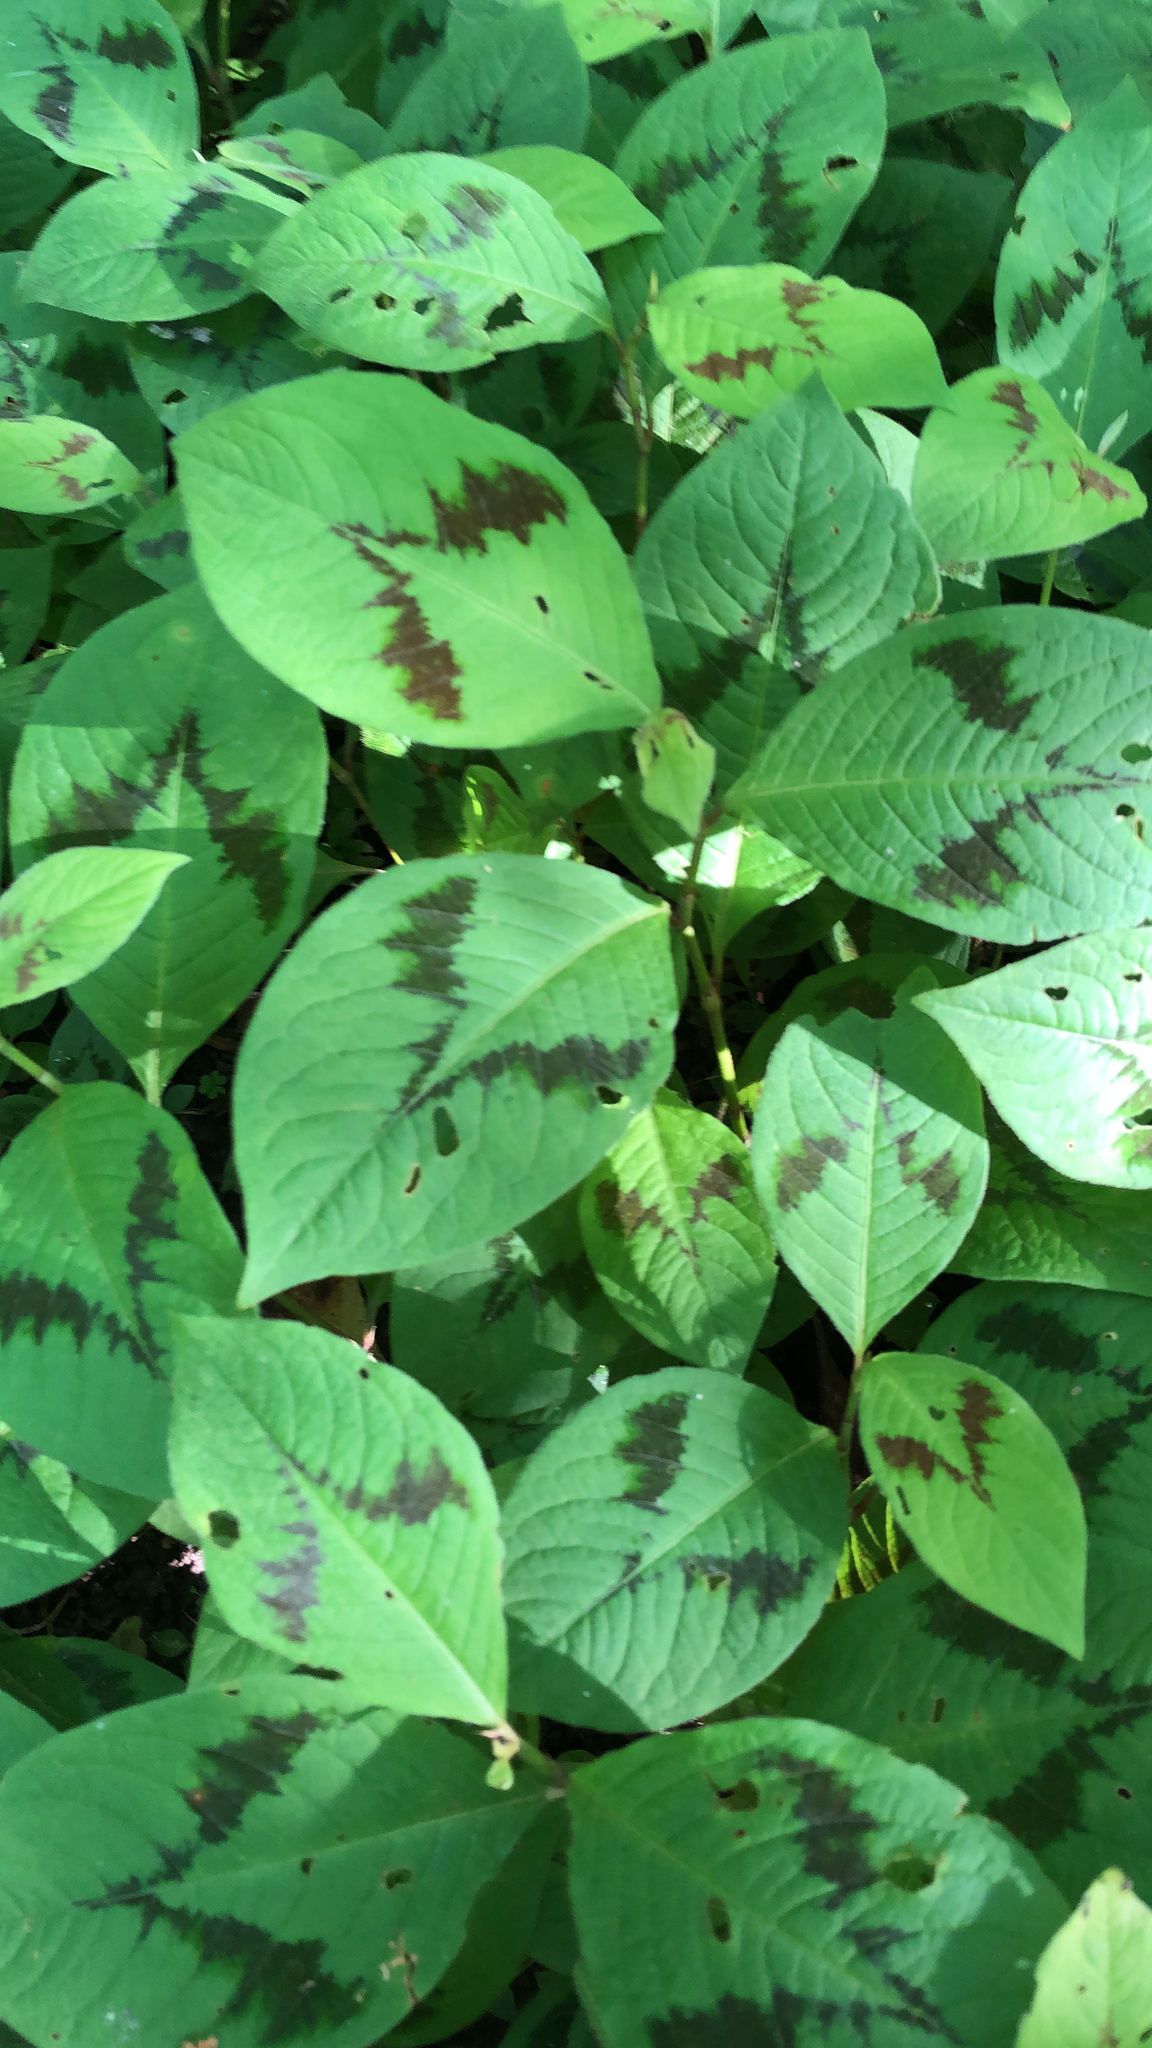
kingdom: Plantae
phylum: Tracheophyta
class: Magnoliopsida
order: Caryophyllales
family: Polygonaceae
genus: Persicaria
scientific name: Persicaria filiformis
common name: Asian jumpseed
